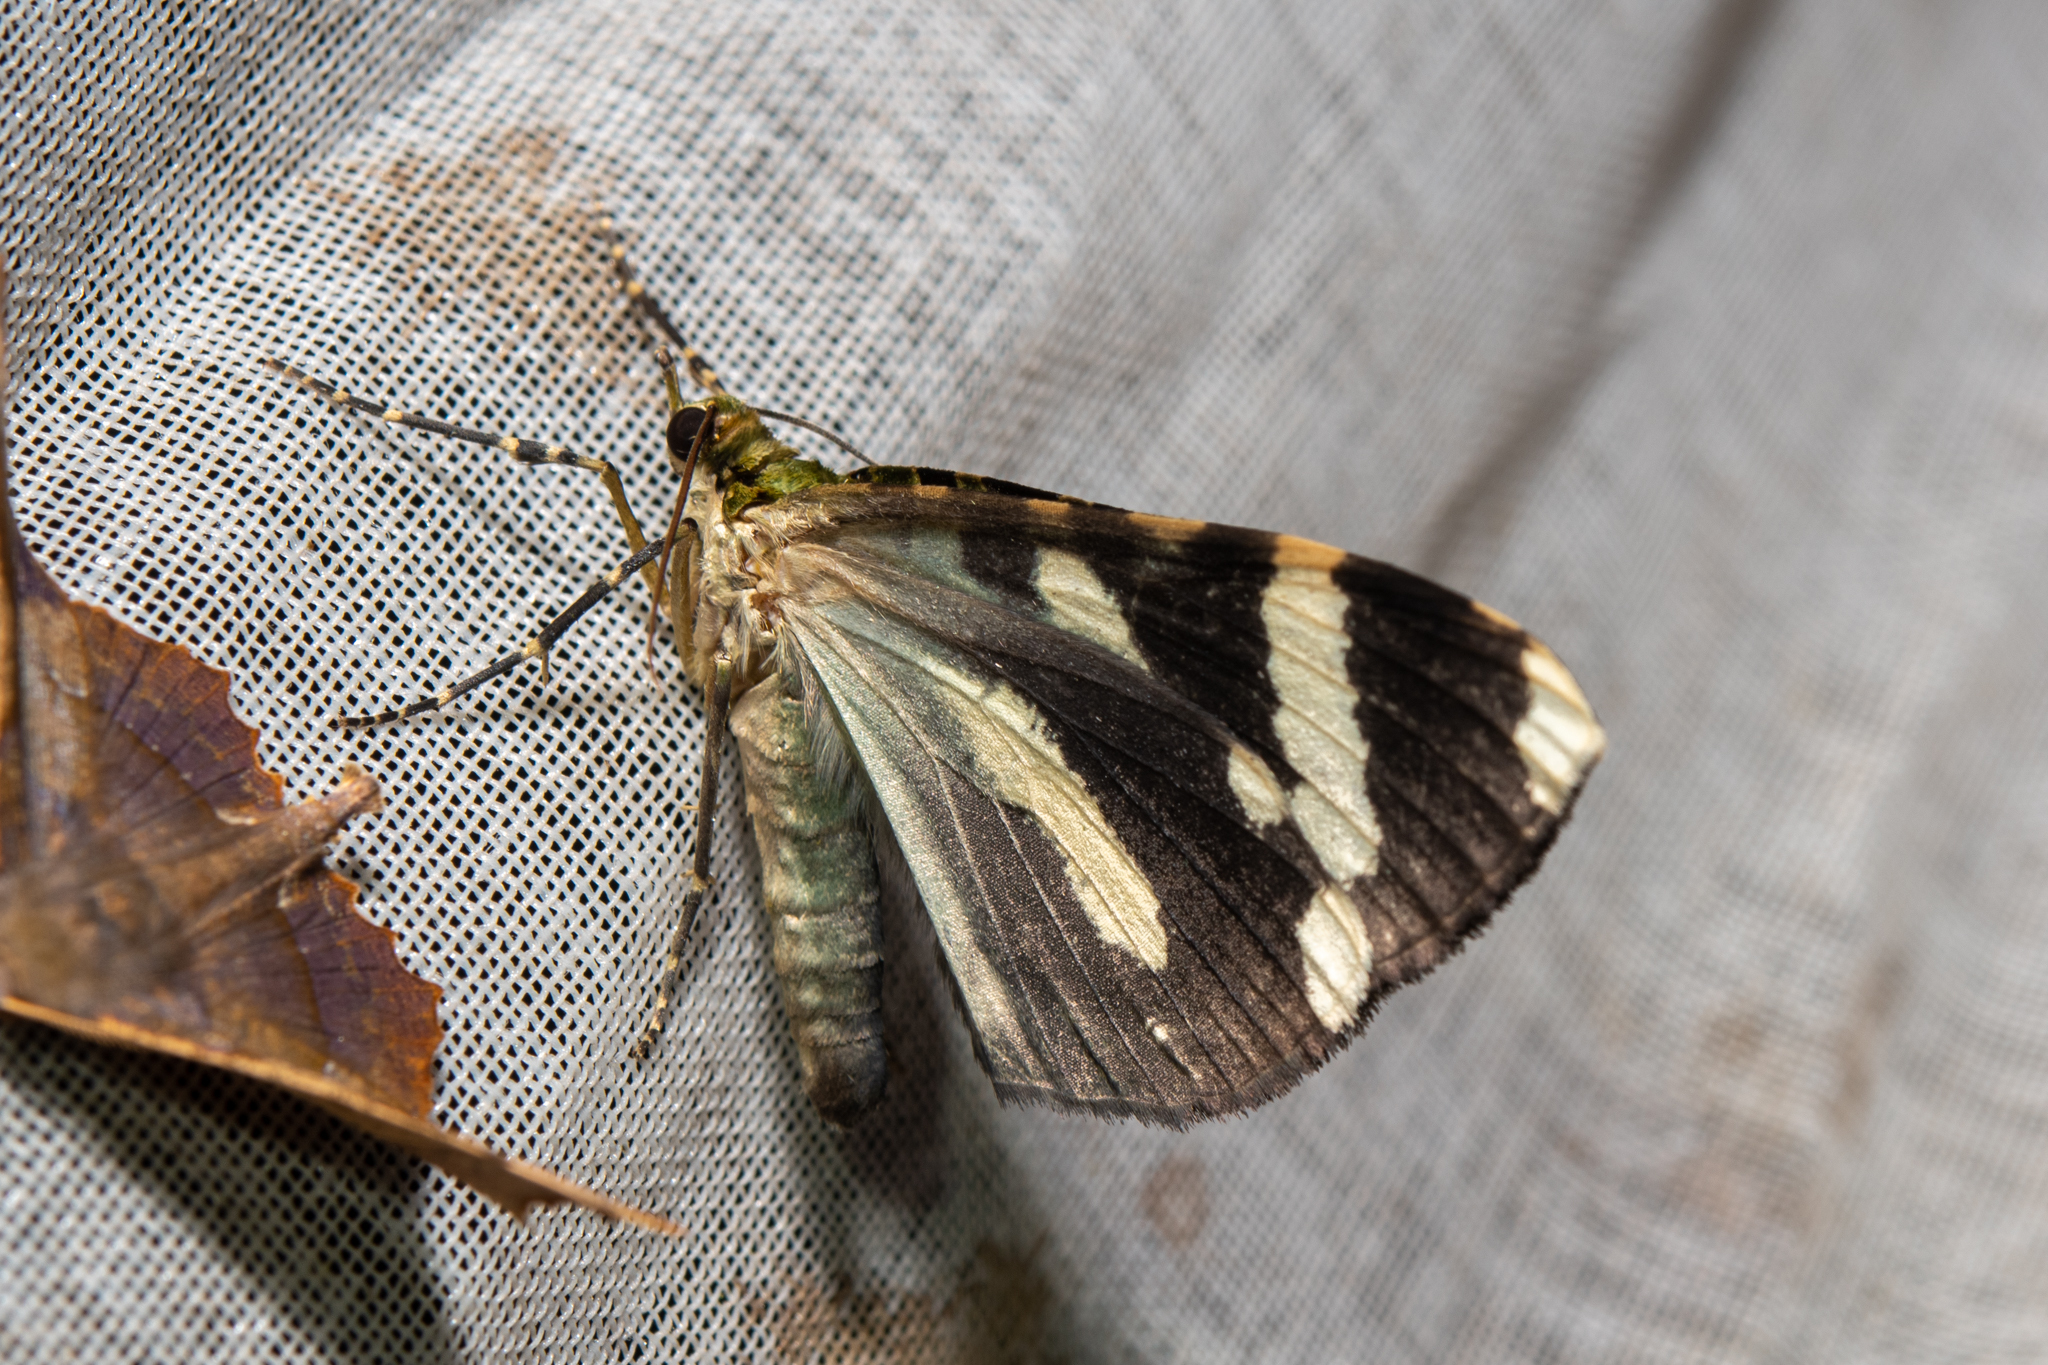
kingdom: Animalia
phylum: Arthropoda
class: Insecta
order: Lepidoptera
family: Geometridae
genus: Erebochlora
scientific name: Erebochlora tesserulata
